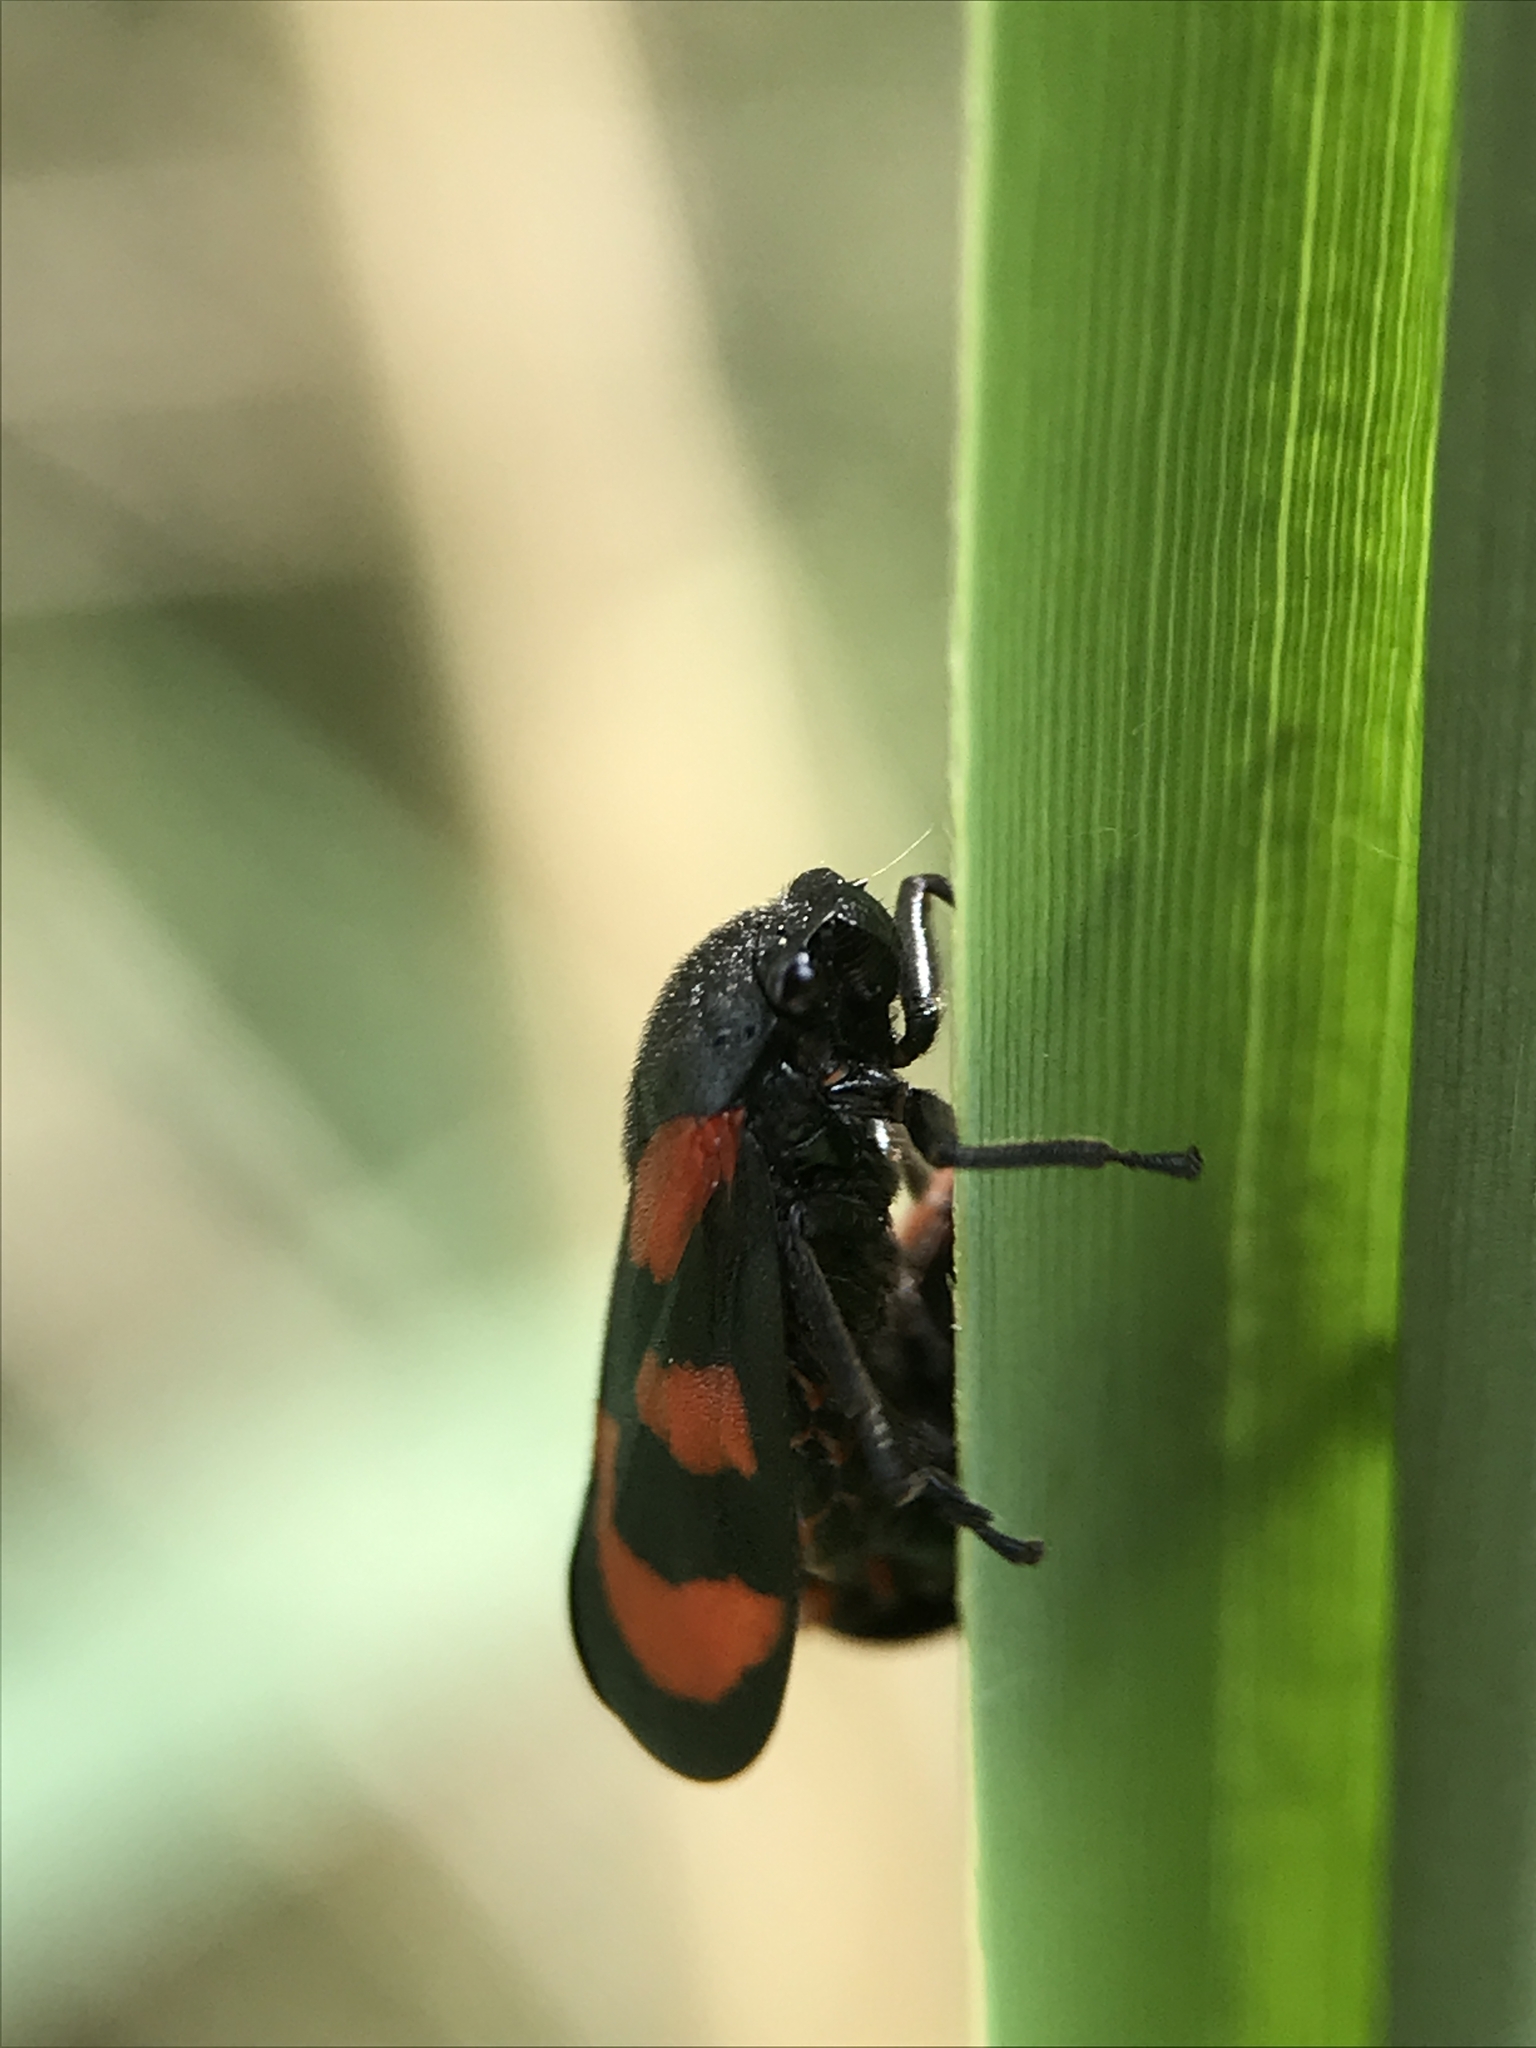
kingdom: Animalia
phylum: Arthropoda
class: Insecta
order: Hemiptera
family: Cercopidae
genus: Cercopis
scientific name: Cercopis vulnerata
